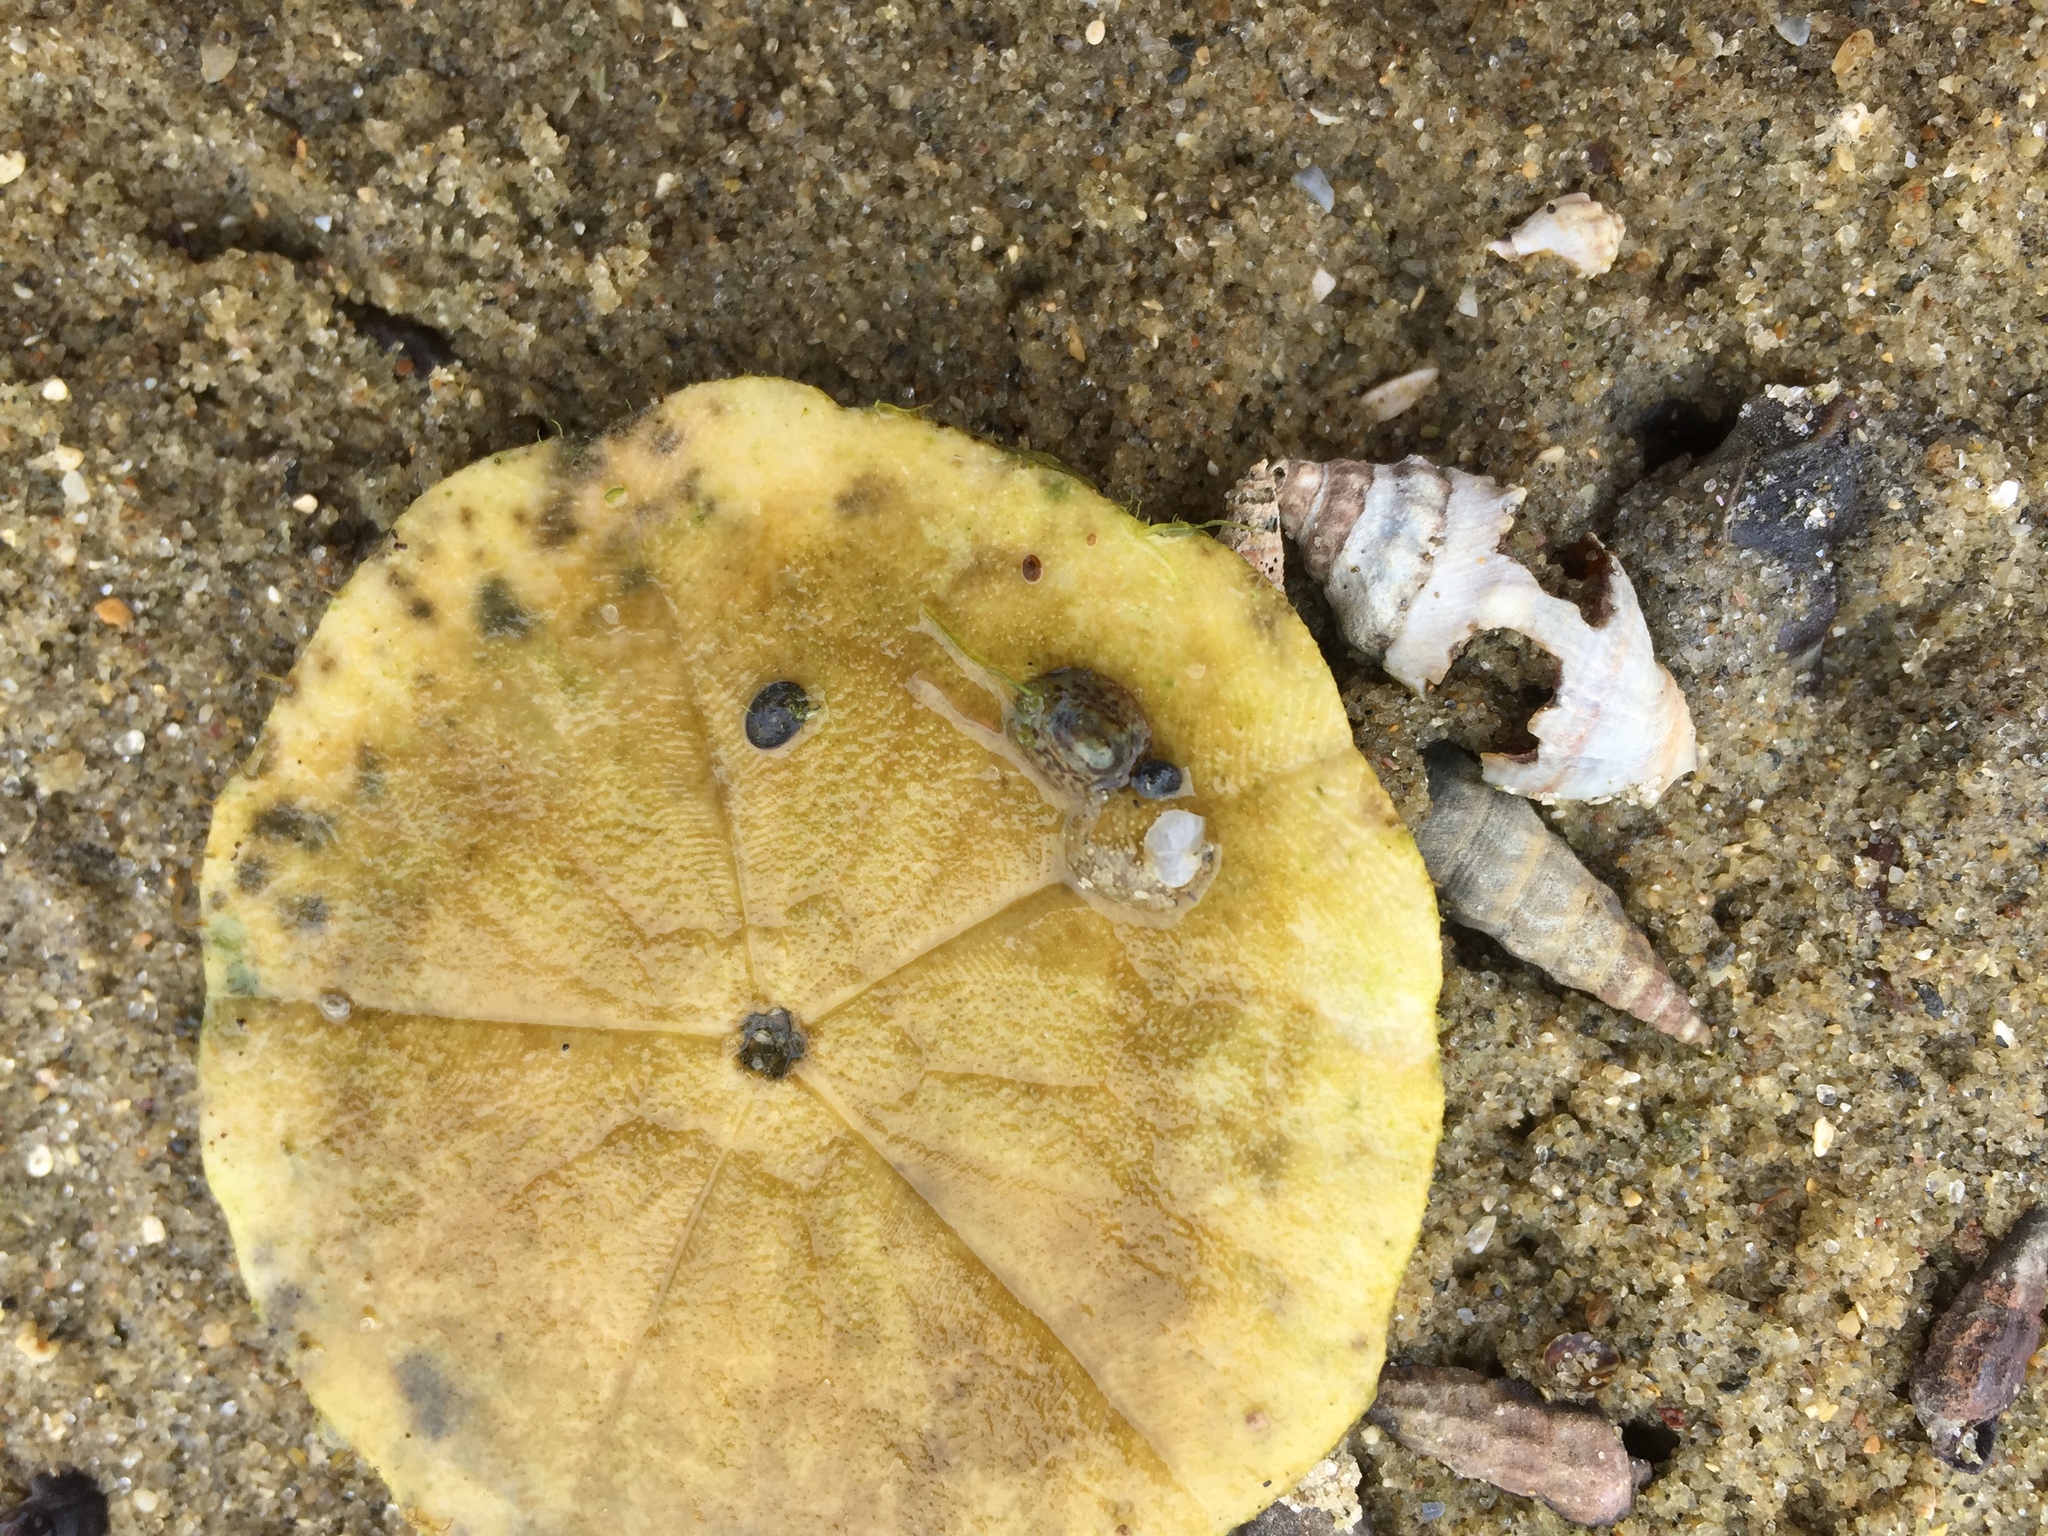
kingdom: Animalia
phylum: Mollusca
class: Gastropoda
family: Lottiidae
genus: Notoacmea
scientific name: Notoacmea
